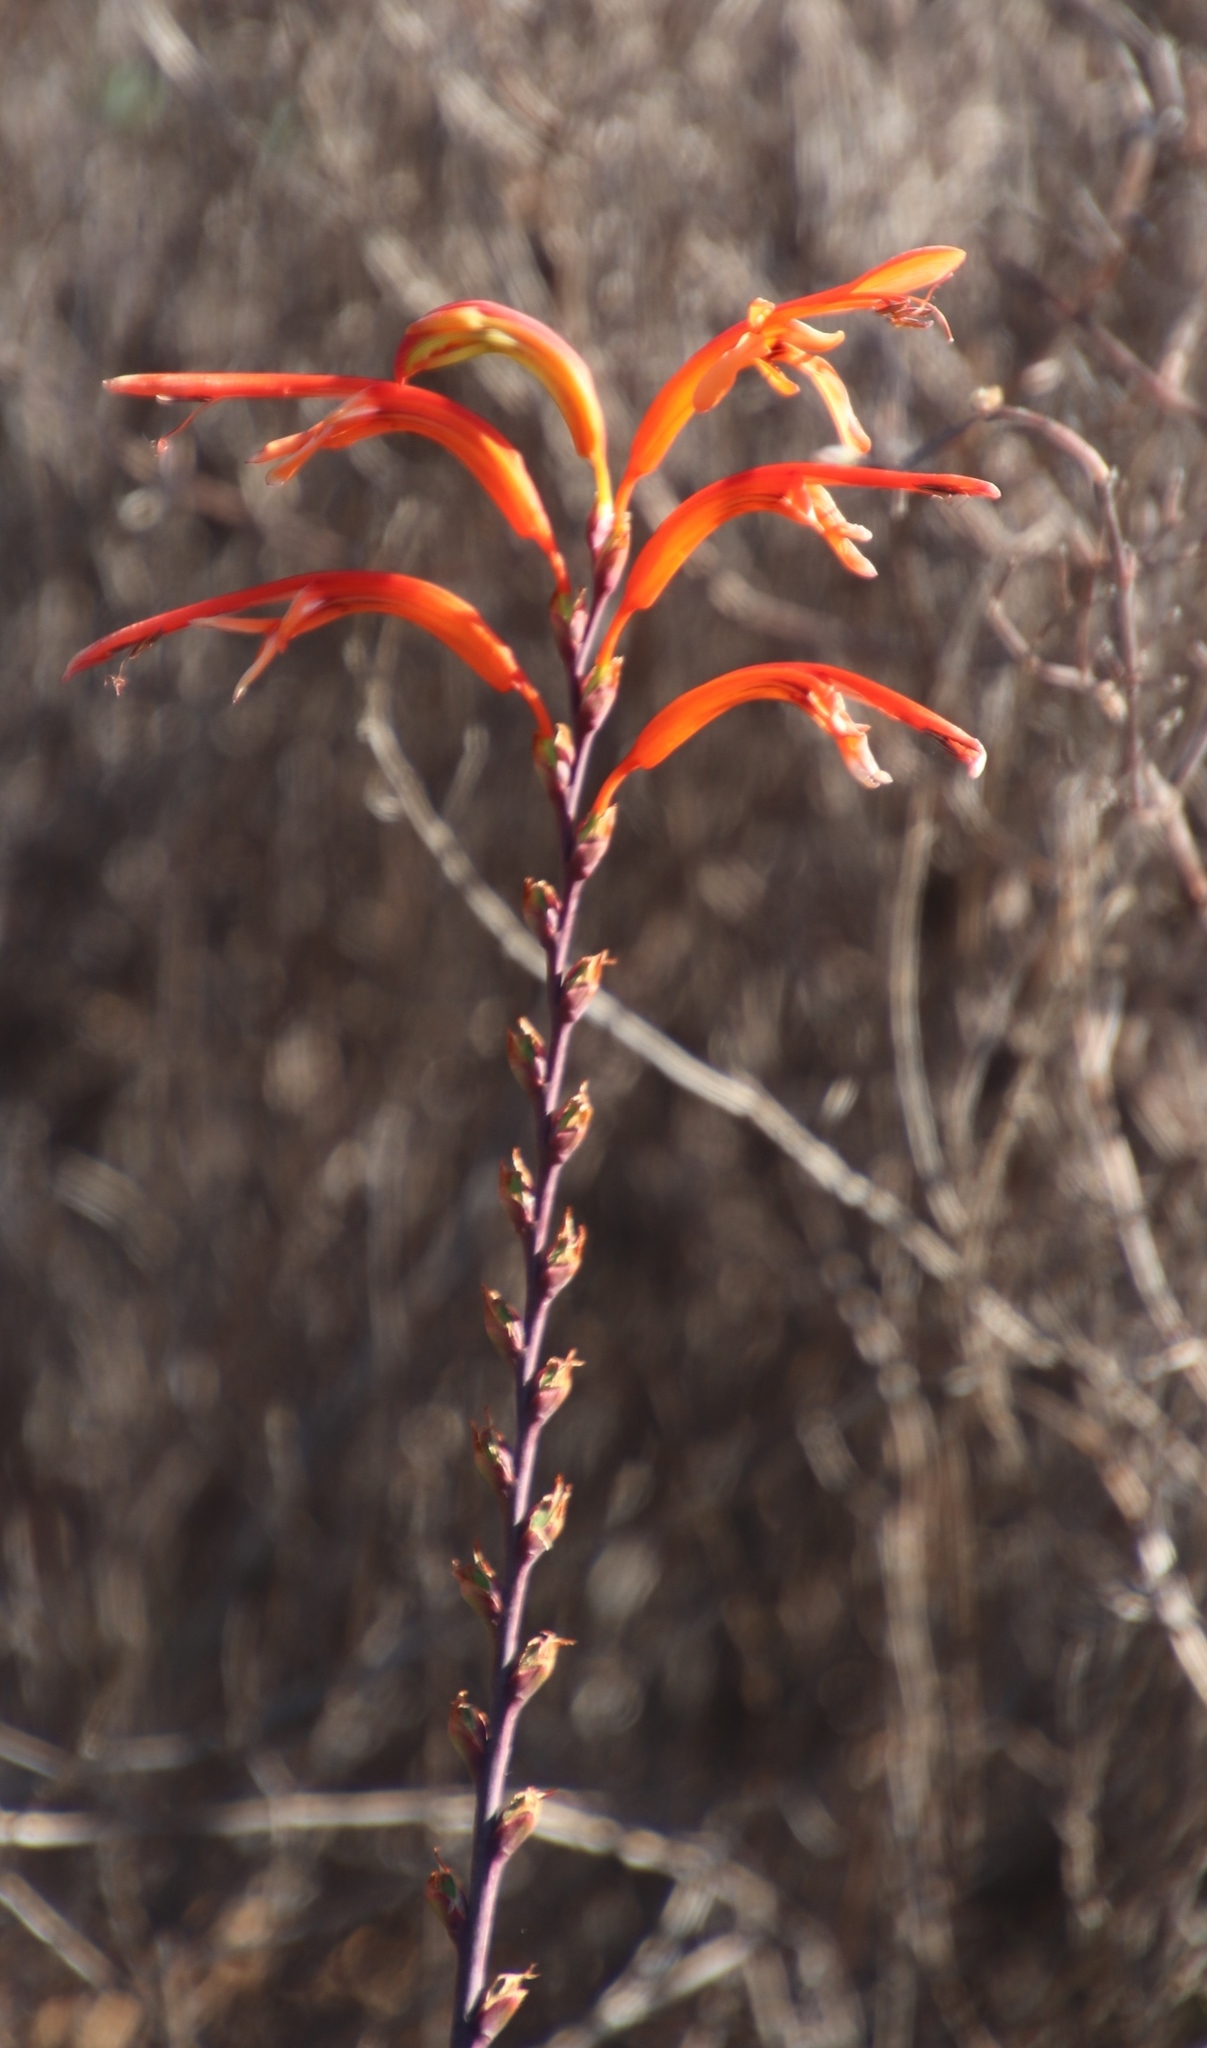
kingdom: Plantae
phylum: Tracheophyta
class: Liliopsida
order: Asparagales
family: Iridaceae
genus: Chasmanthe
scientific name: Chasmanthe floribunda
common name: African cornflag
